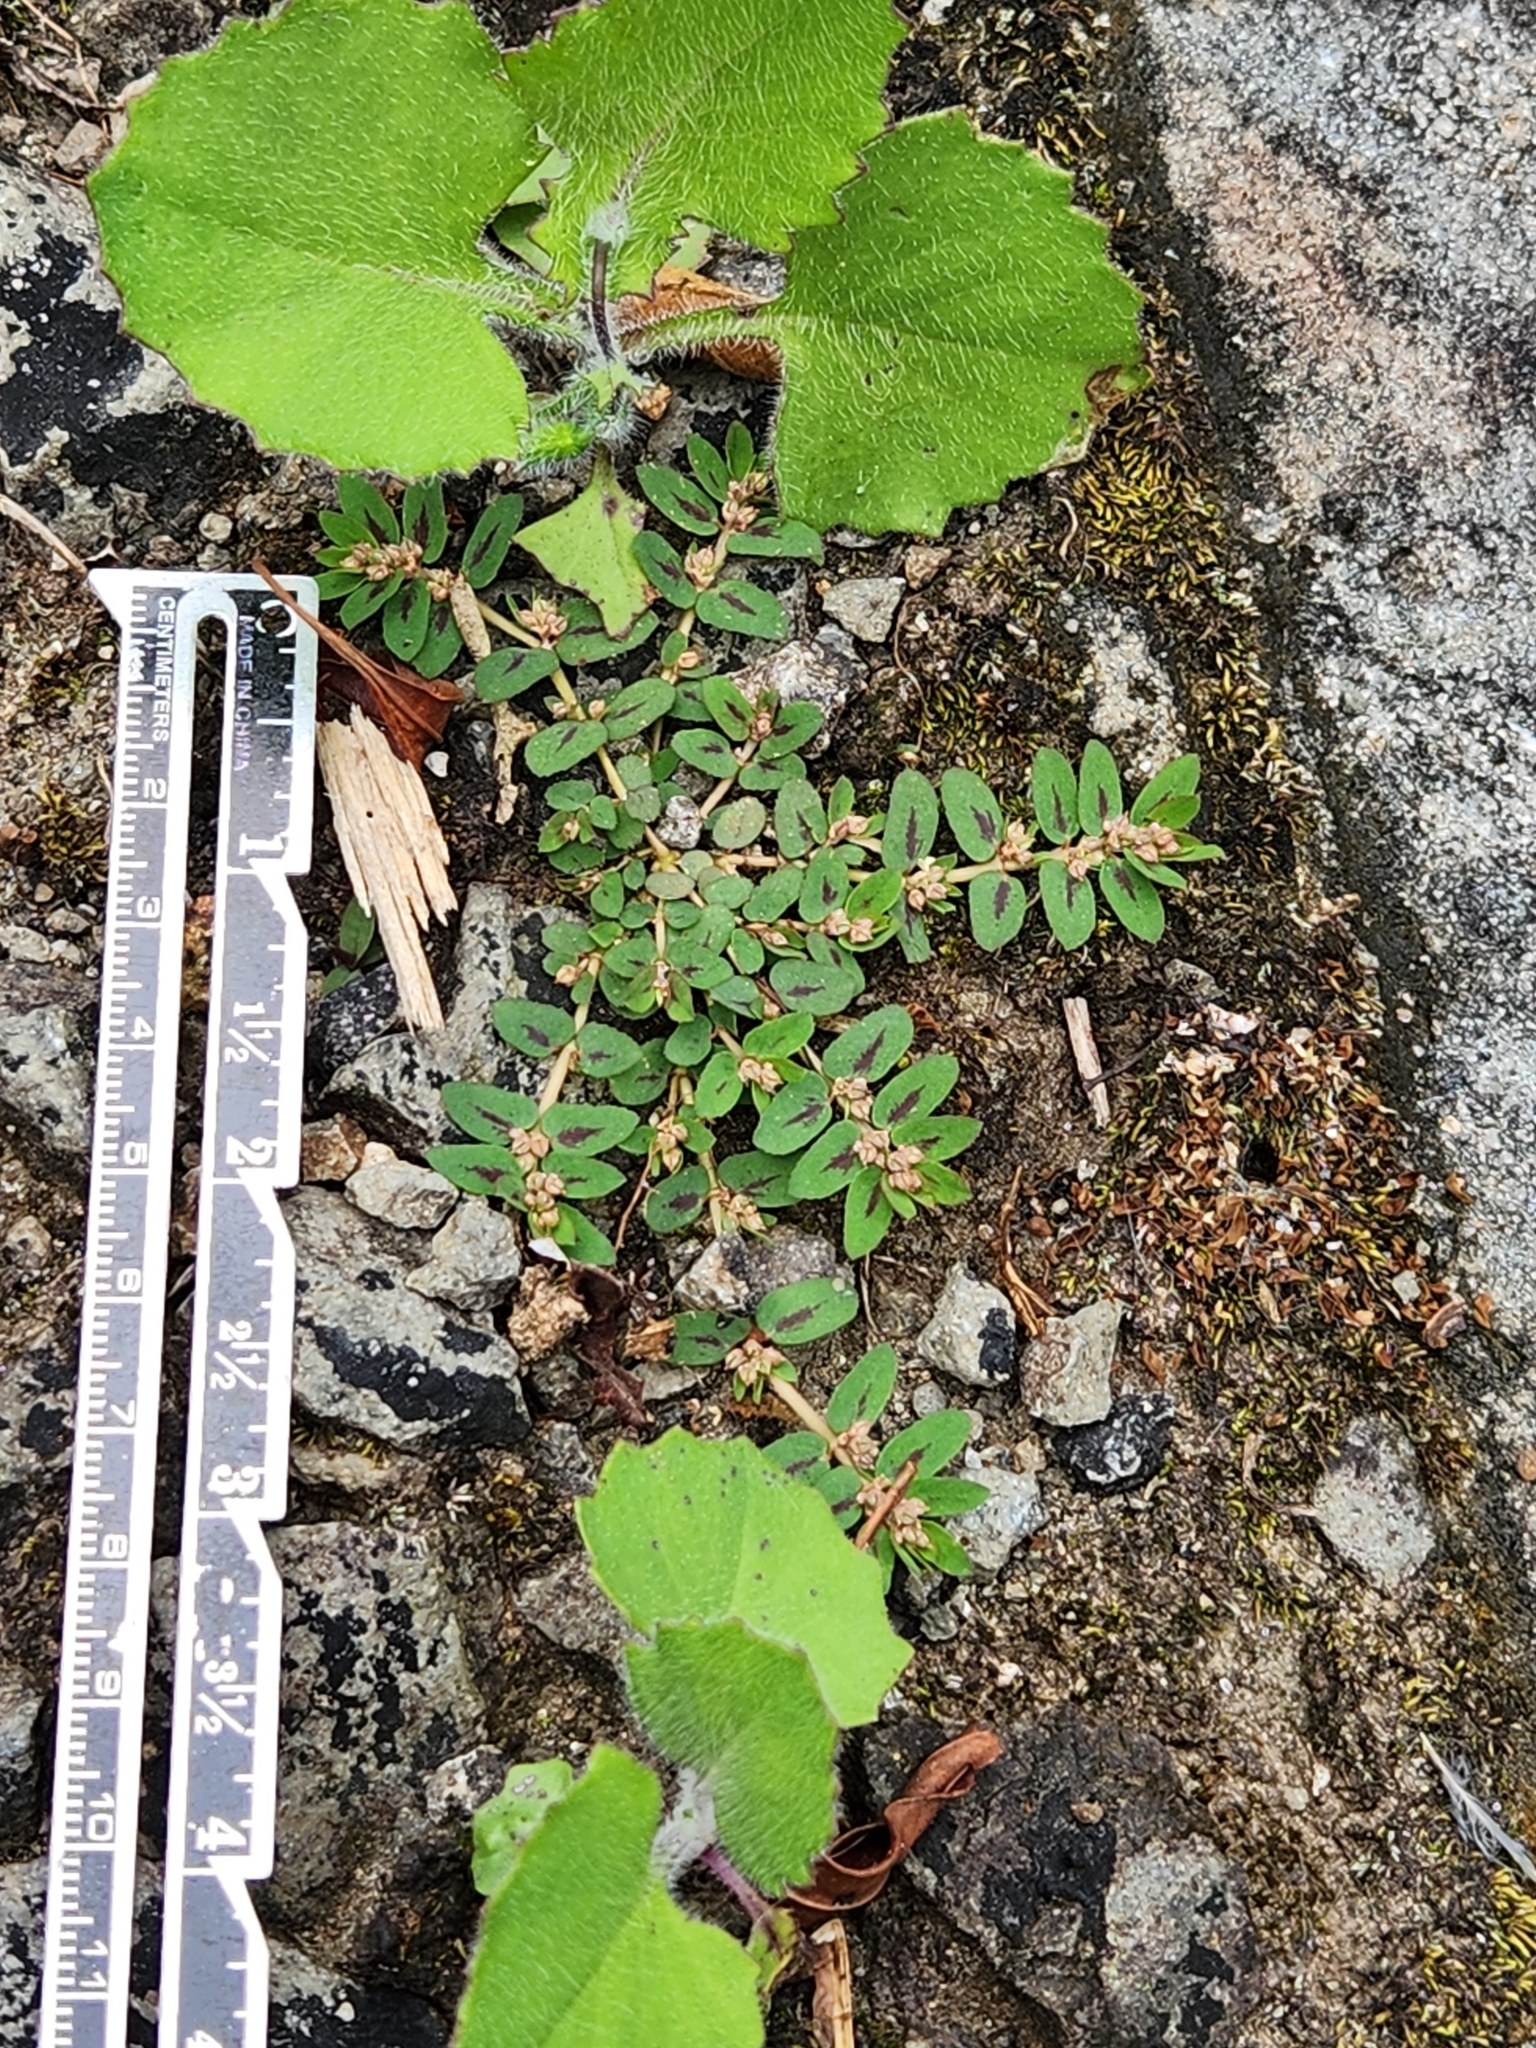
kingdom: Plantae
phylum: Tracheophyta
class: Magnoliopsida
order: Malpighiales
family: Euphorbiaceae
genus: Euphorbia
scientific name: Euphorbia thymifolia
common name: Gulf sandmat
